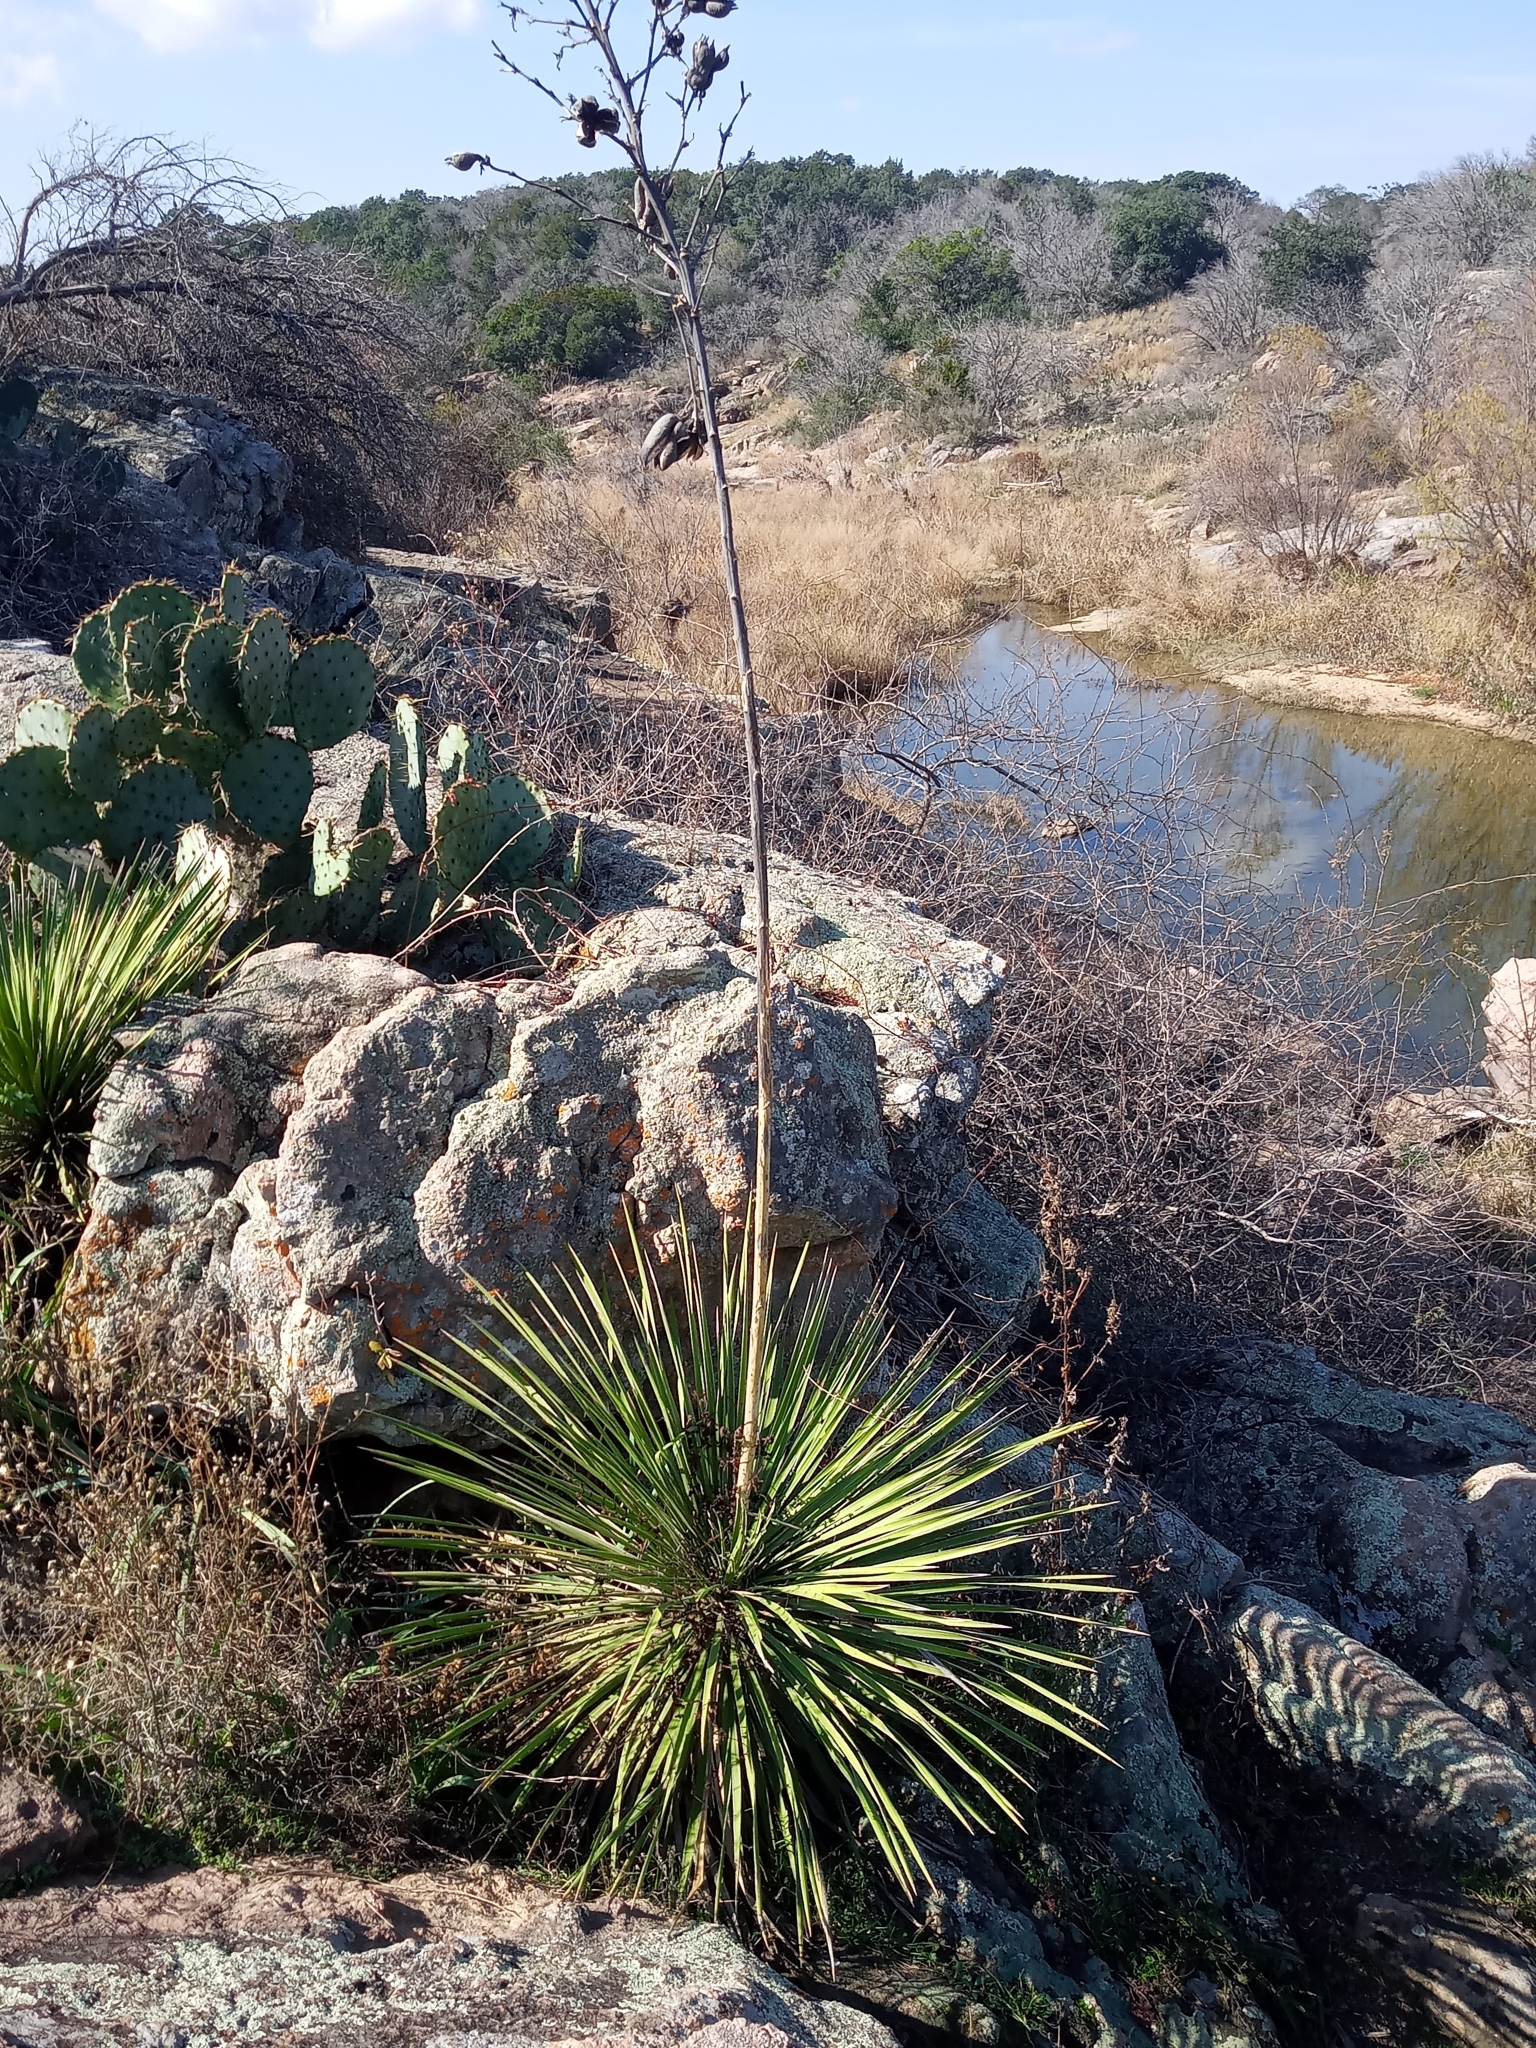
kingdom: Plantae
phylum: Tracheophyta
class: Liliopsida
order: Asparagales
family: Asparagaceae
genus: Yucca
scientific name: Yucca constricta
